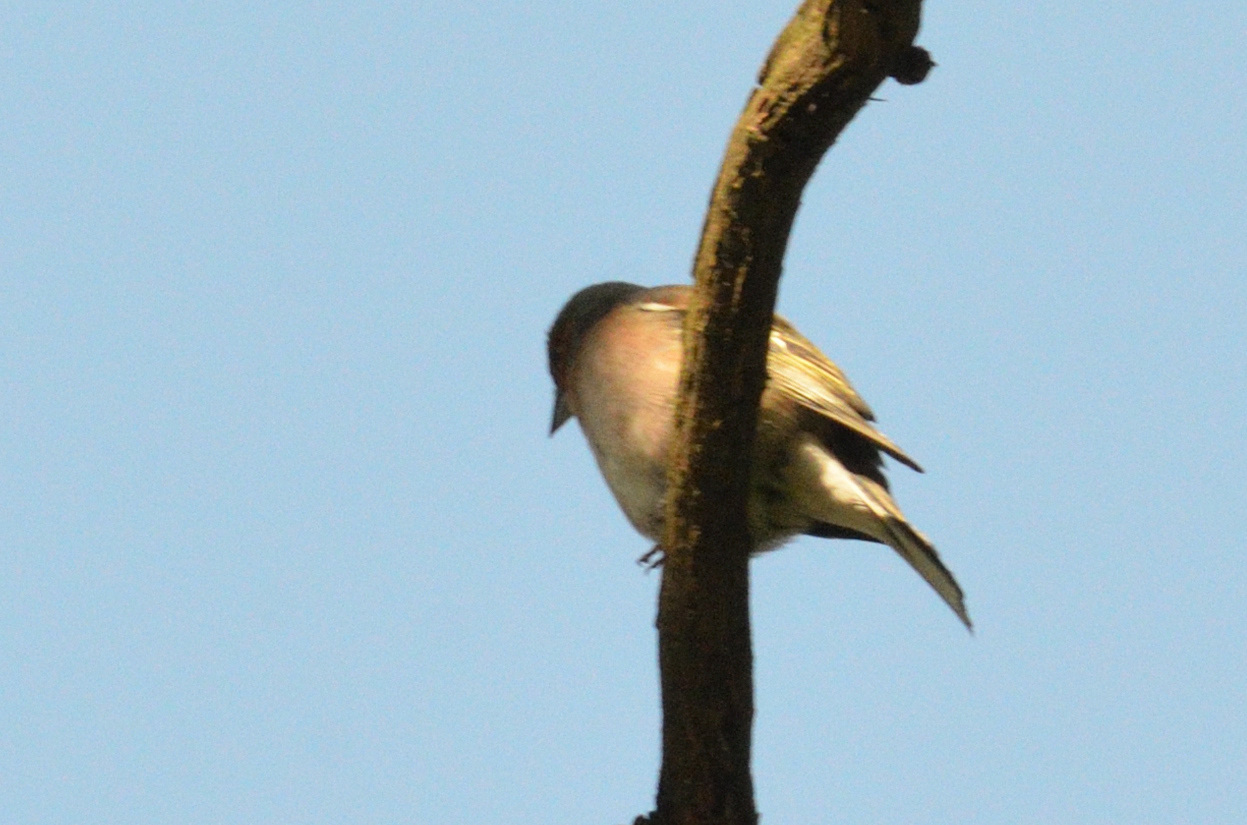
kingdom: Animalia
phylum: Chordata
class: Aves
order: Passeriformes
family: Fringillidae
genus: Fringilla
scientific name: Fringilla coelebs
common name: Common chaffinch
